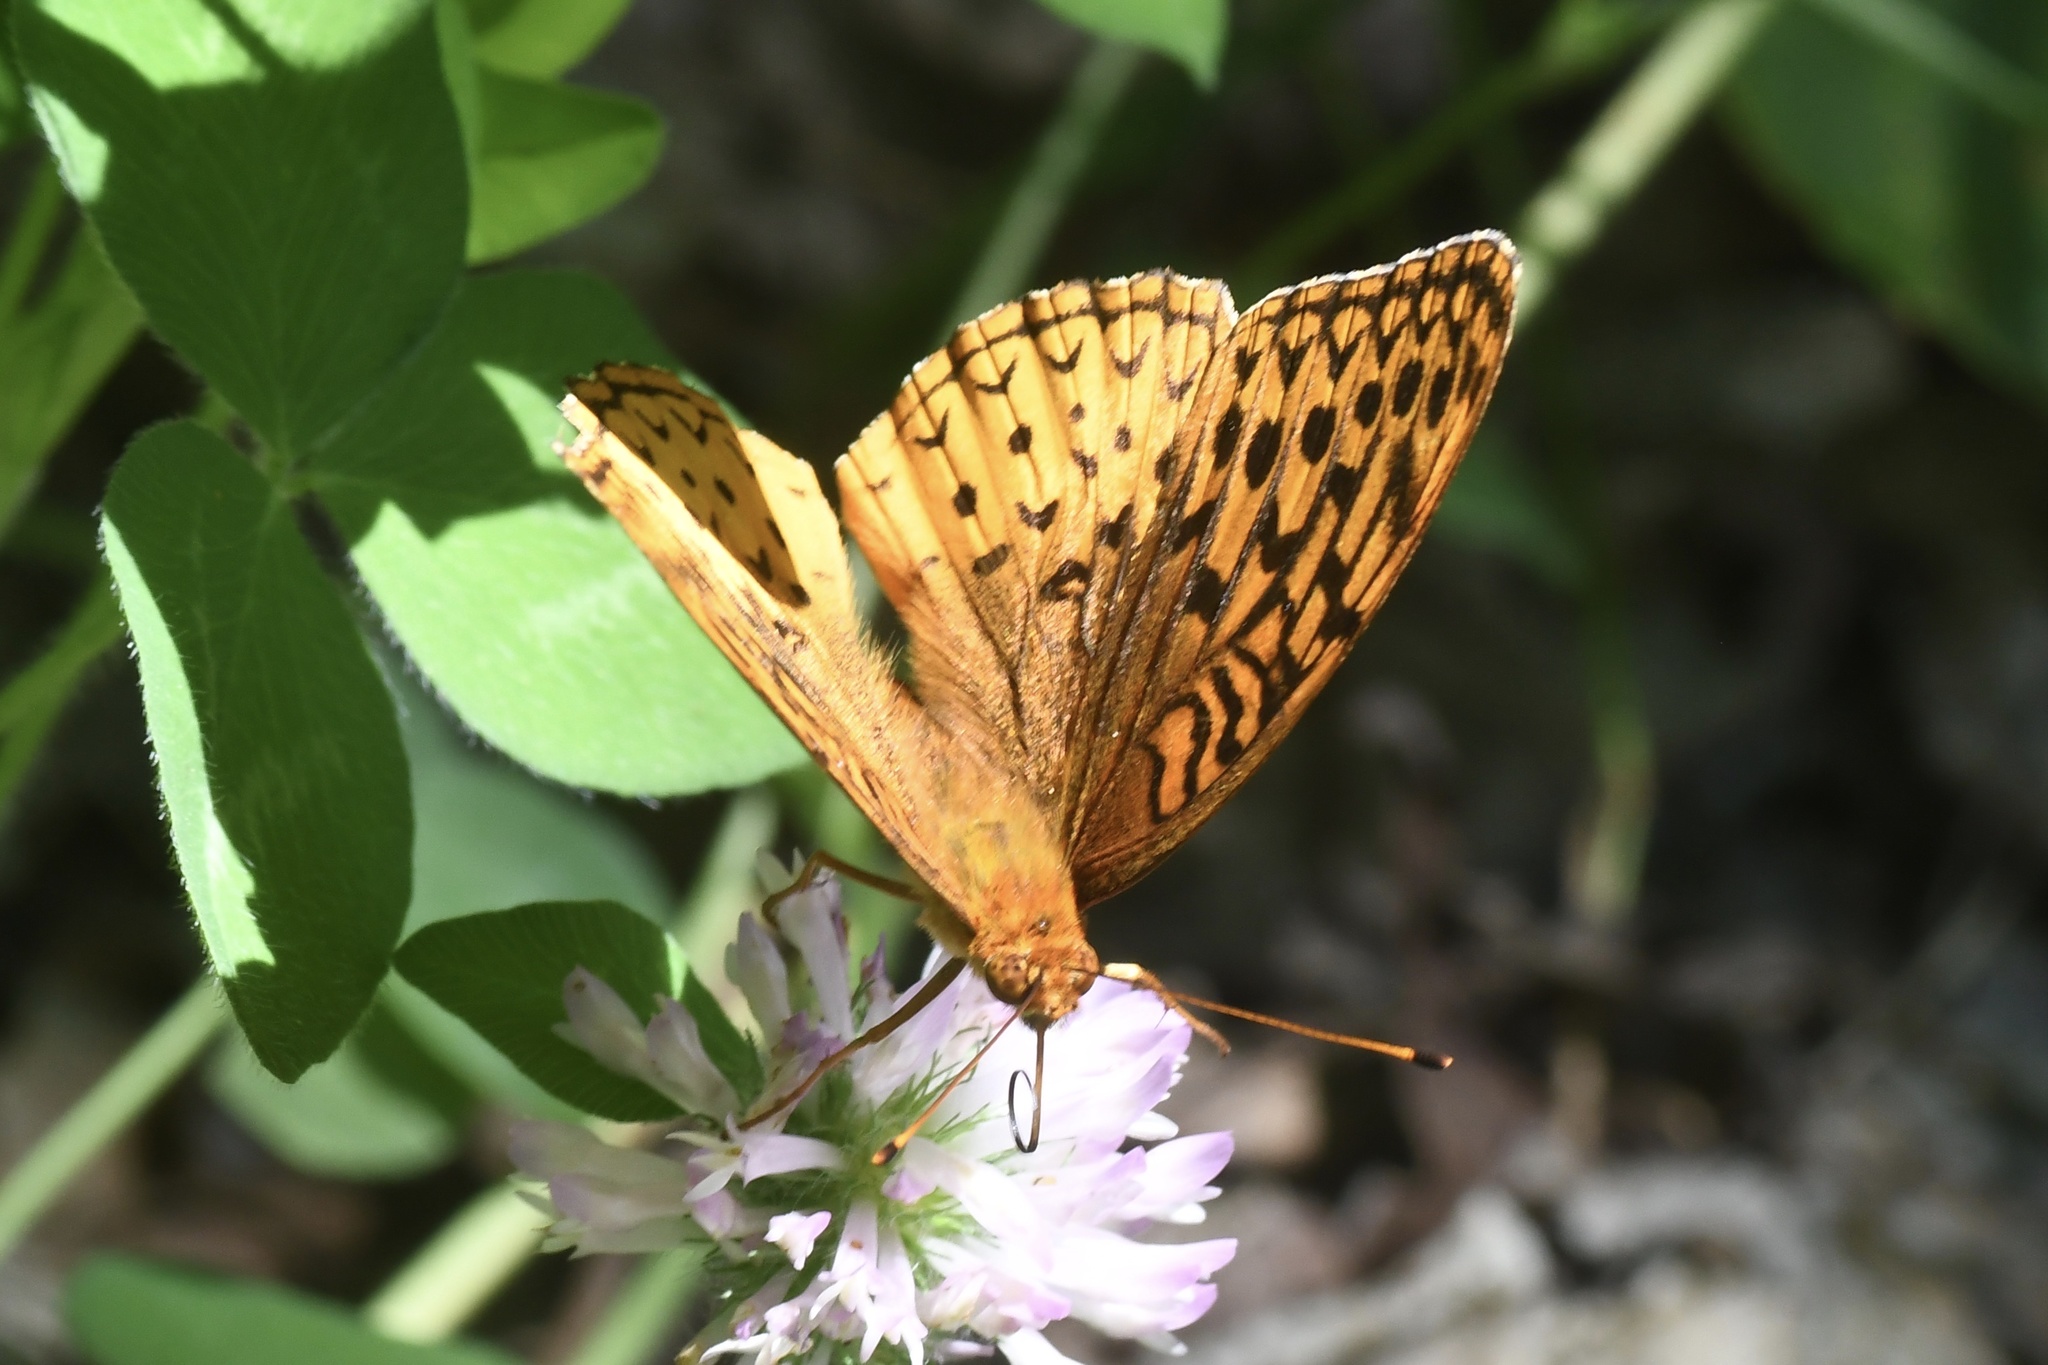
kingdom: Animalia
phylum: Arthropoda
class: Insecta
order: Lepidoptera
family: Nymphalidae
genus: Speyeria
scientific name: Speyeria cybele
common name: Great spangled fritillary
